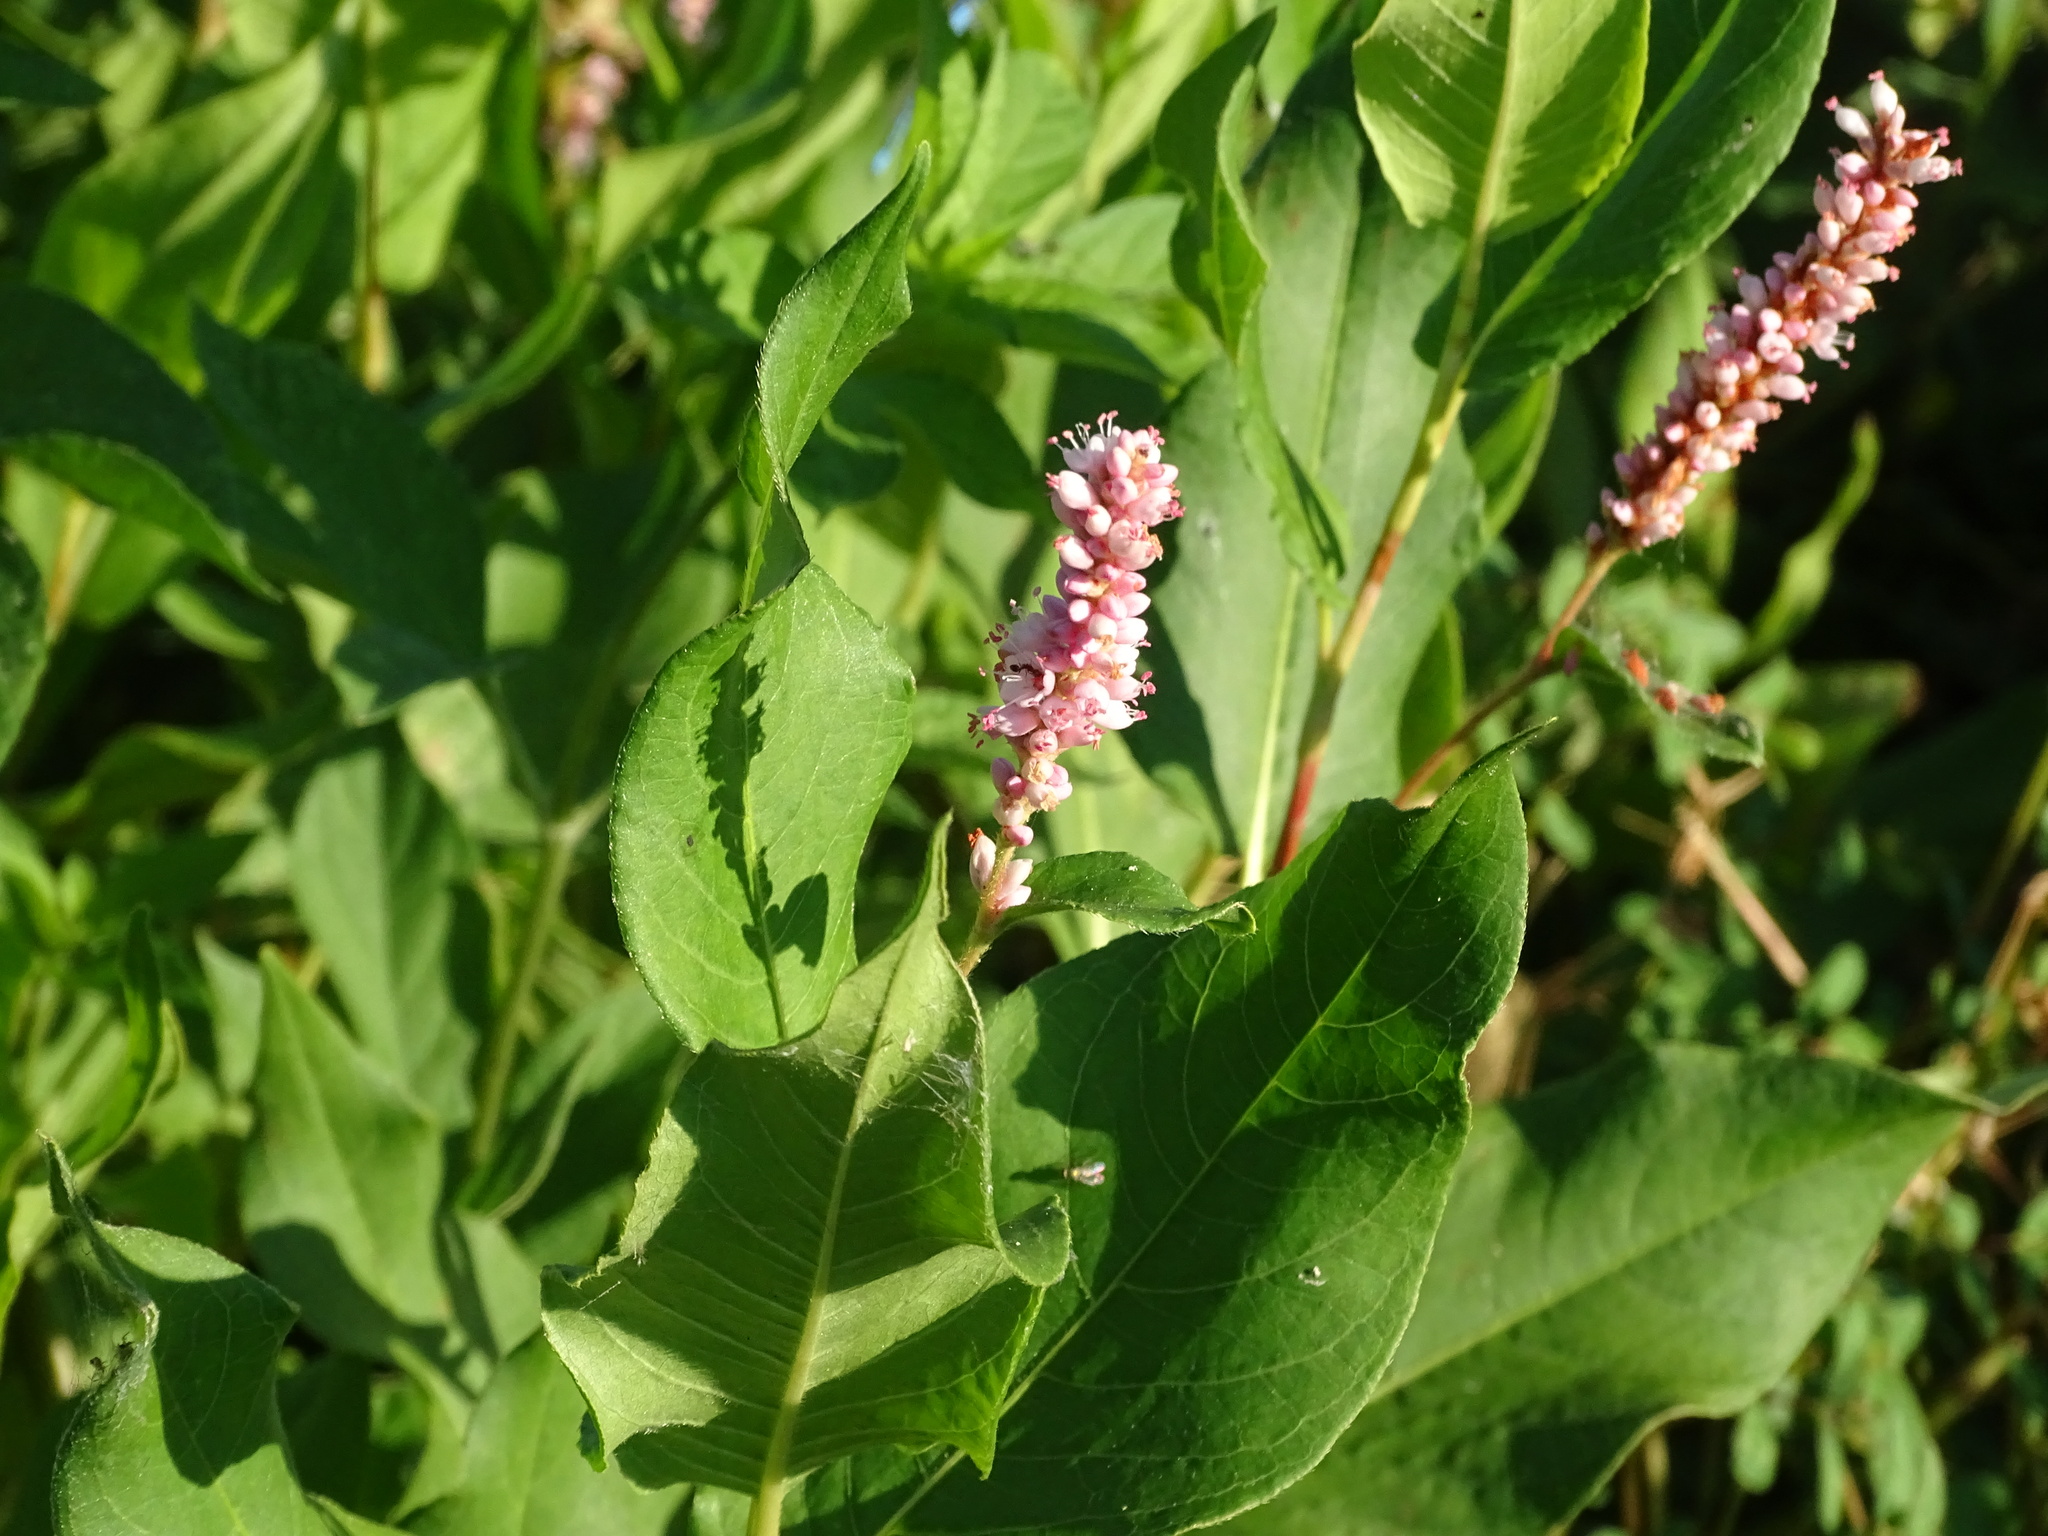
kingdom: Plantae
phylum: Tracheophyta
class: Magnoliopsida
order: Caryophyllales
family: Polygonaceae
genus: Persicaria
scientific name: Persicaria amphibia
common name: Amphibious bistort
